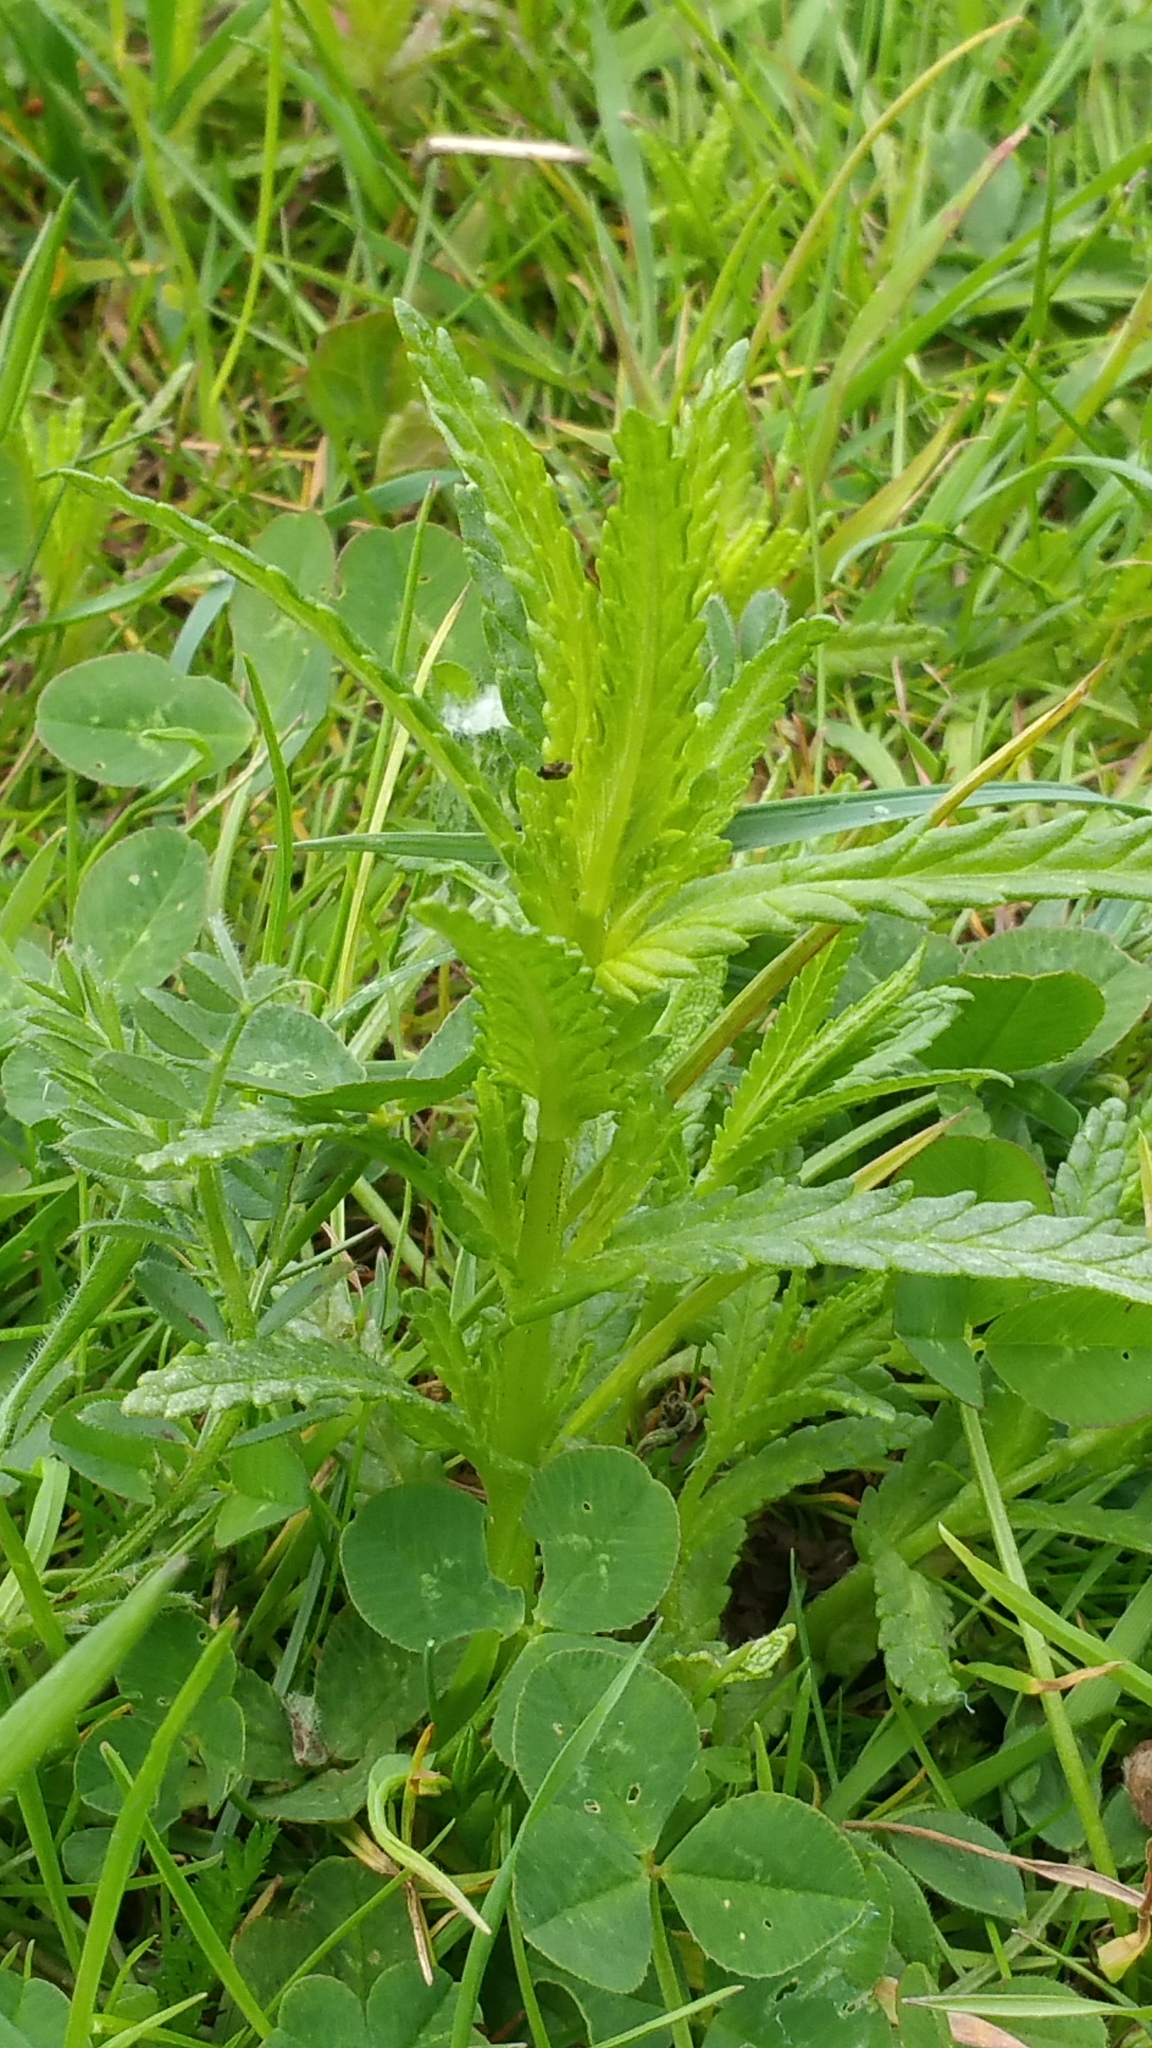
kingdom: Plantae
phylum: Tracheophyta
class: Magnoliopsida
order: Lamiales
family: Orobanchaceae
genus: Rhinanthus
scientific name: Rhinanthus minor
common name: Yellow-rattle
